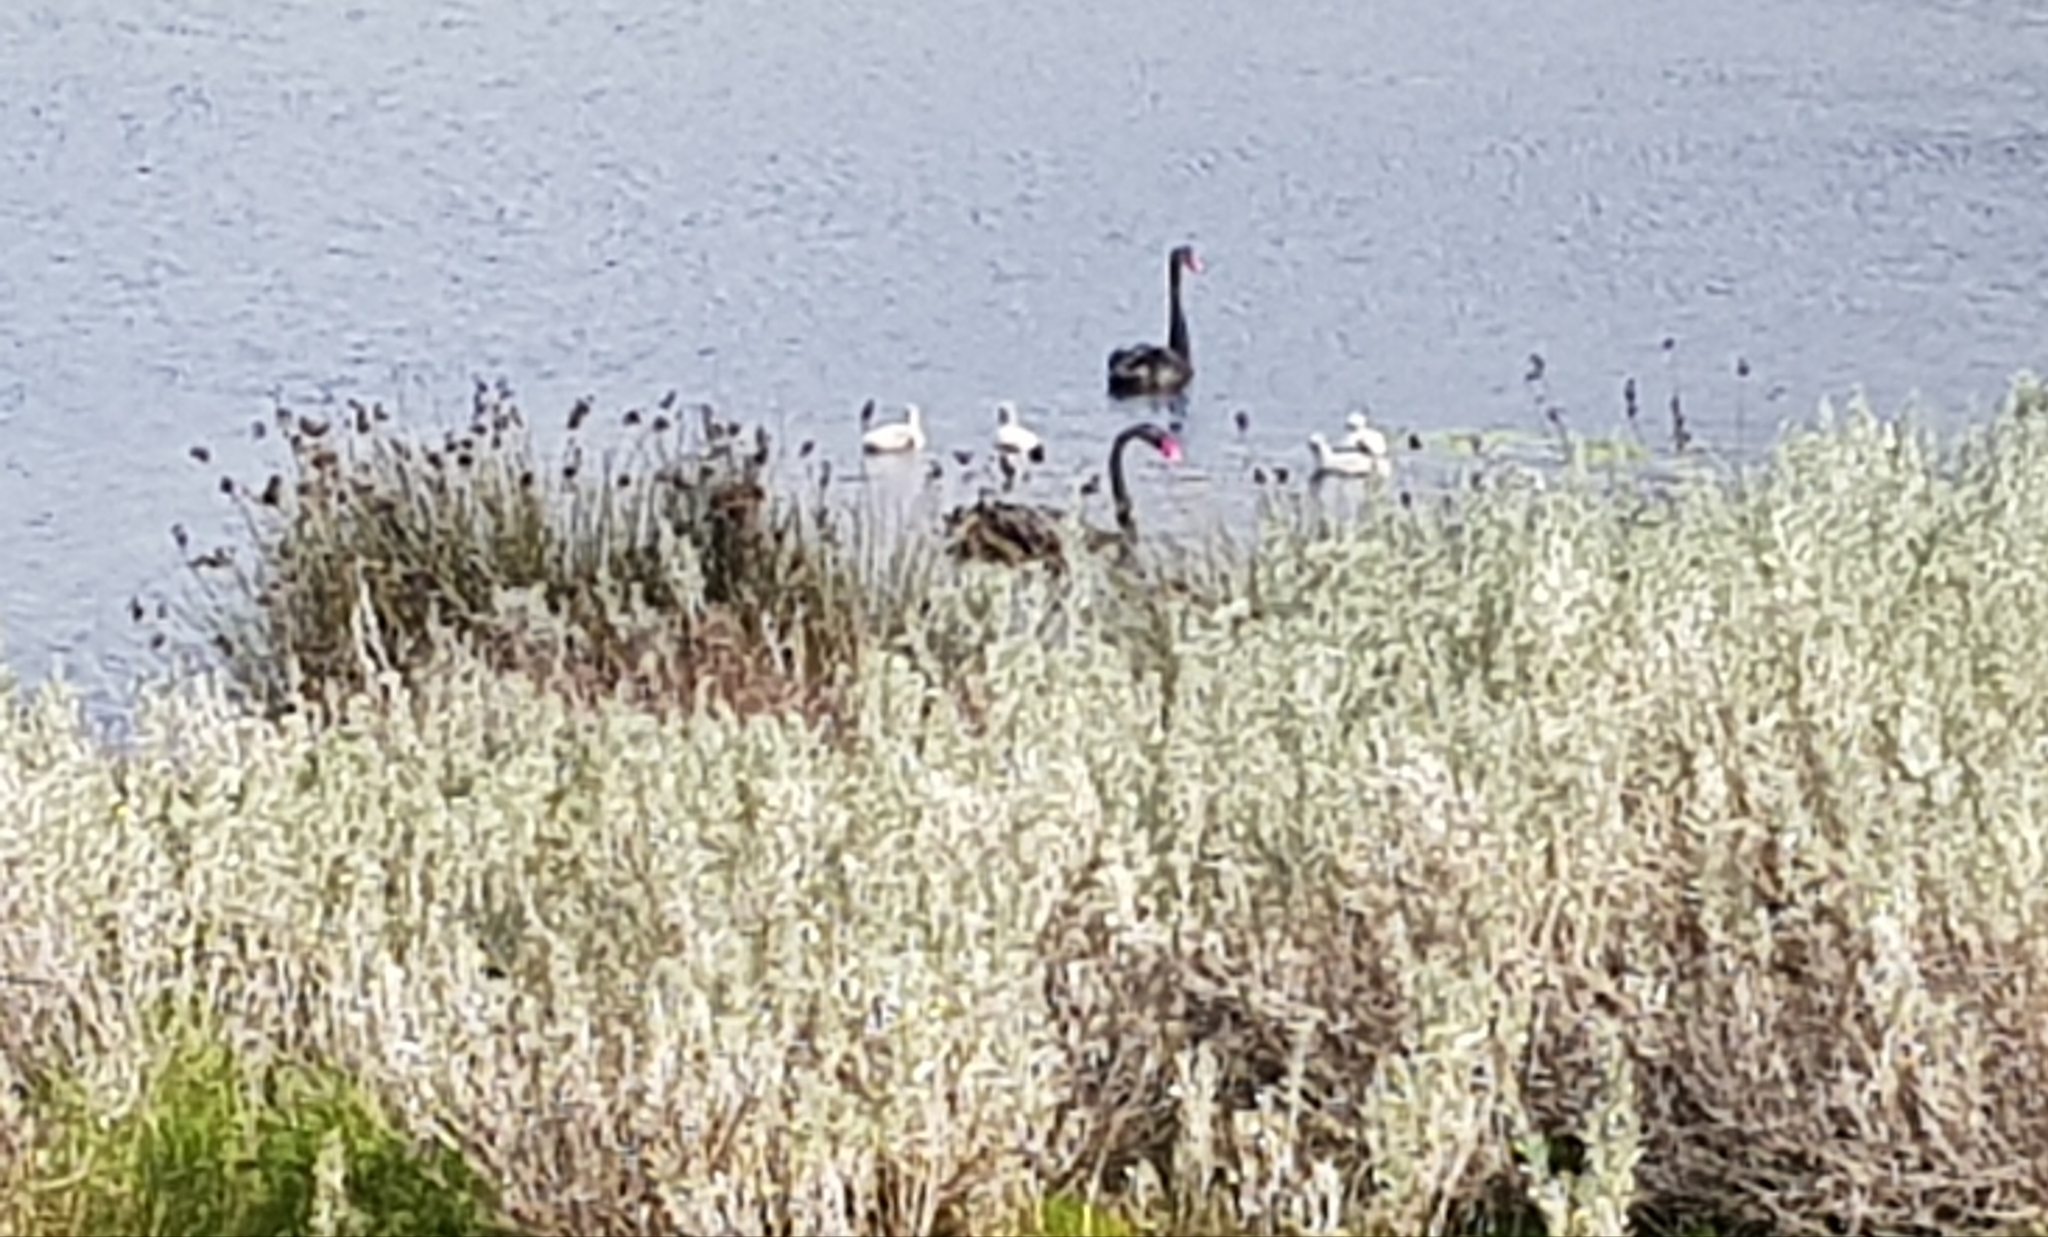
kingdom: Animalia
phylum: Chordata
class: Aves
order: Anseriformes
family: Anatidae
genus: Cygnus
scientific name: Cygnus atratus
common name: Black swan
